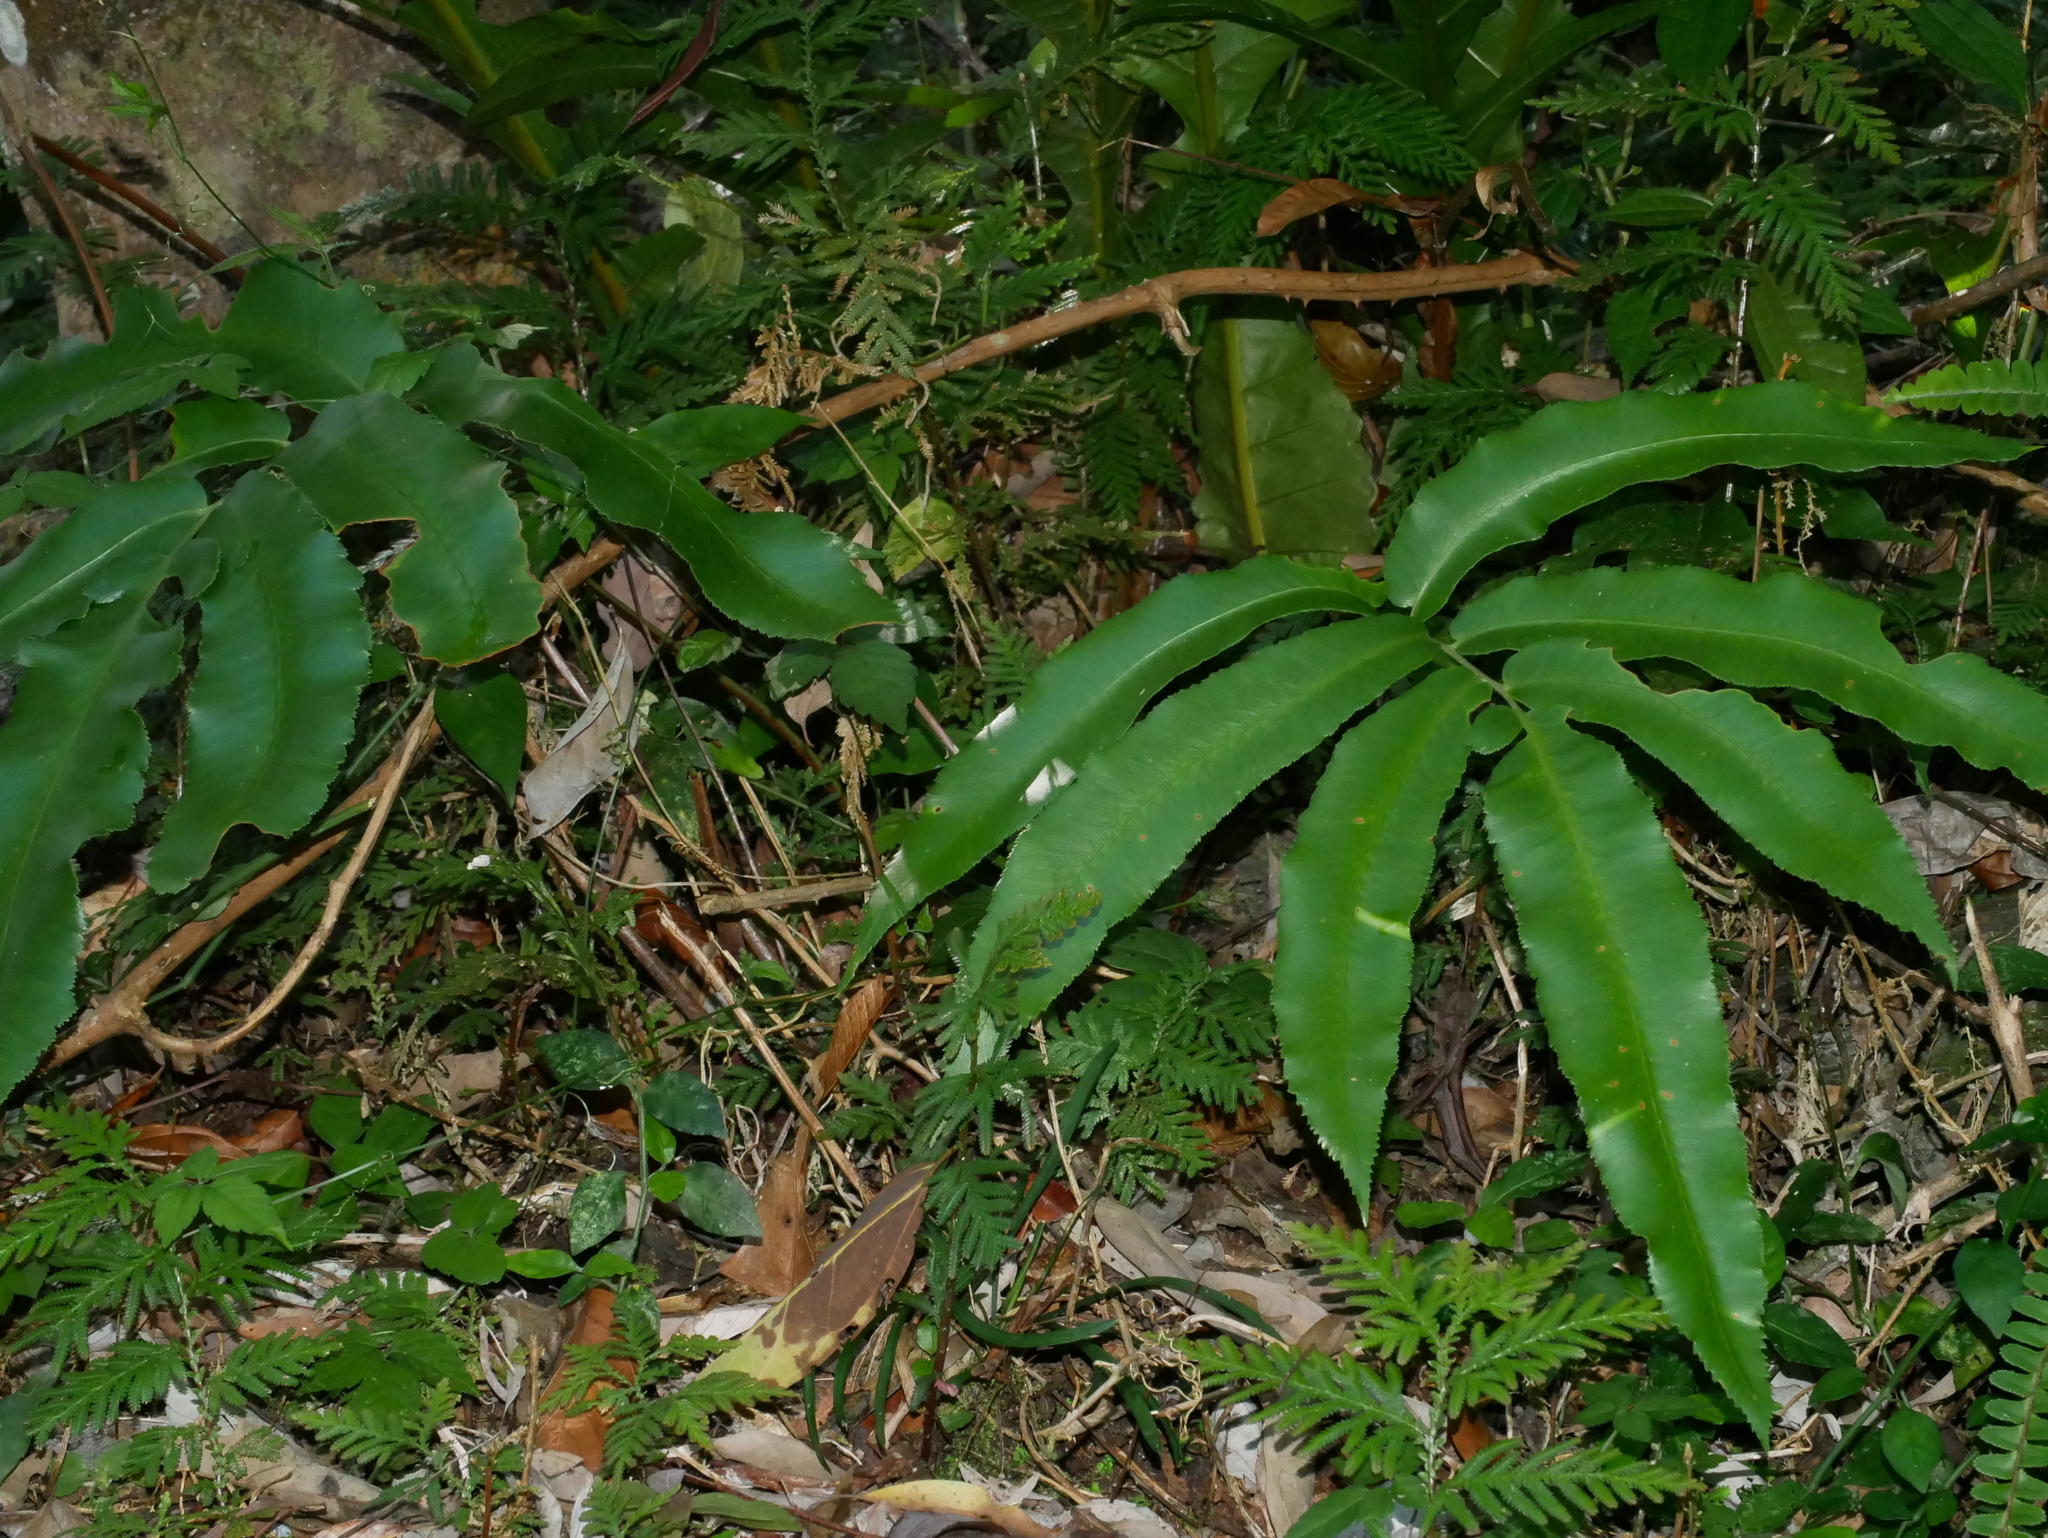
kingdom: Plantae
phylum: Tracheophyta
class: Polypodiopsida
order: Polypodiales
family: Dryopteridaceae
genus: Dryopteris
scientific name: Dryopteris enneaphylla
